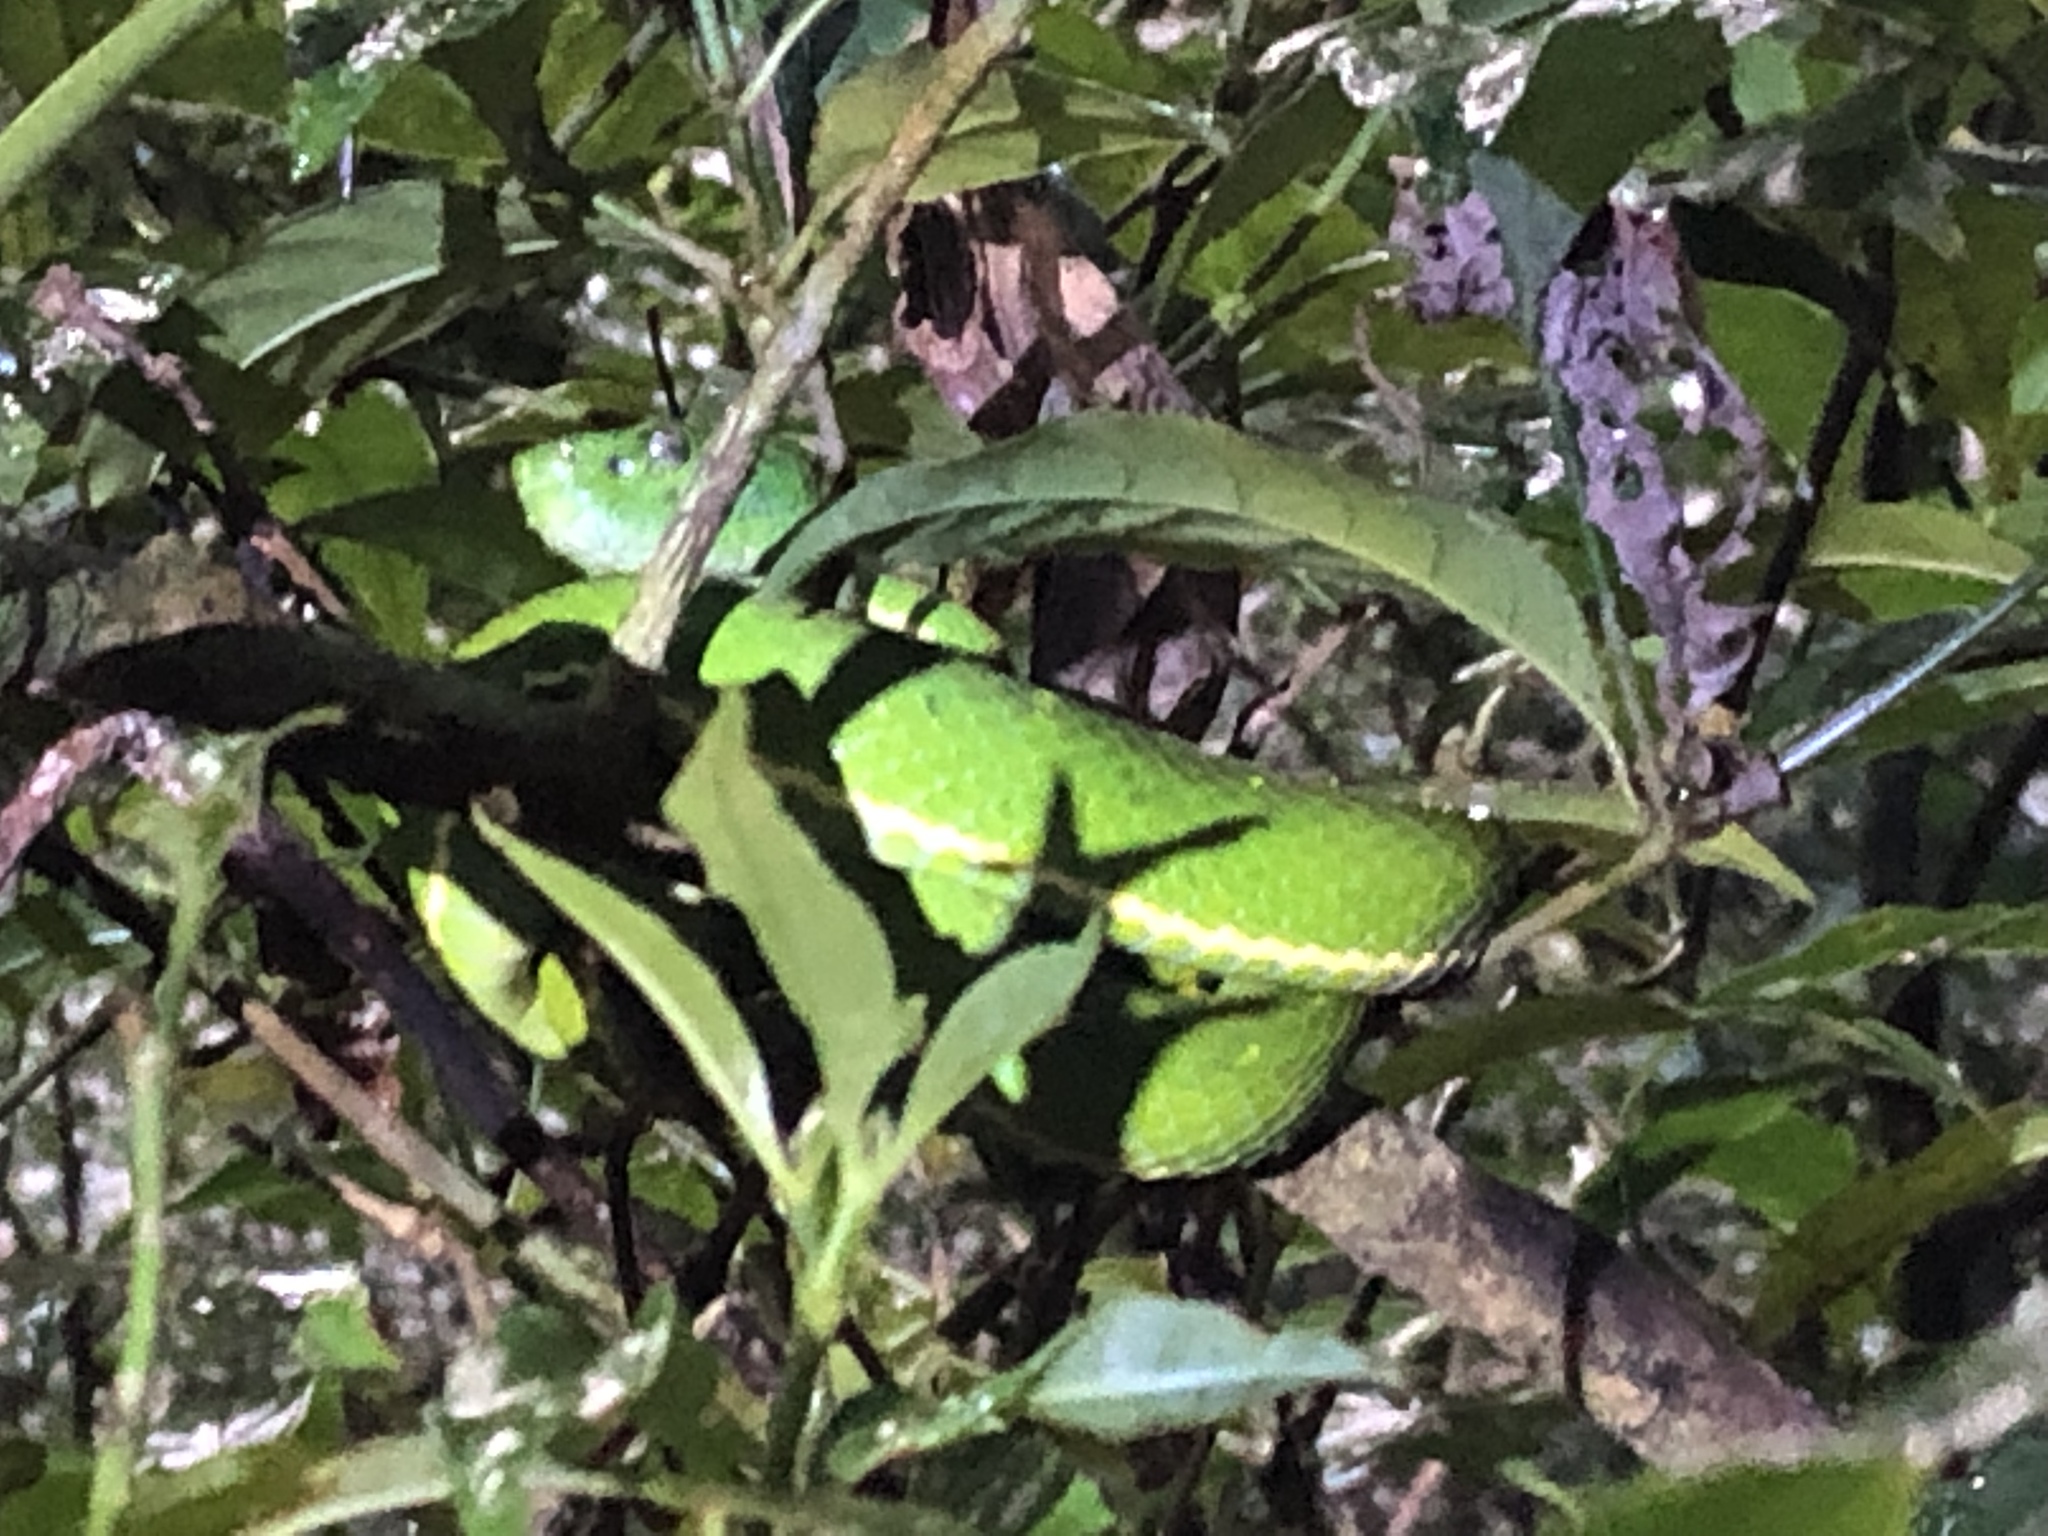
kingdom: Animalia
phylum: Chordata
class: Squamata
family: Viperidae
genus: Bothriechis
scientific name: Bothriechis lateralis
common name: Coffee palm viper
